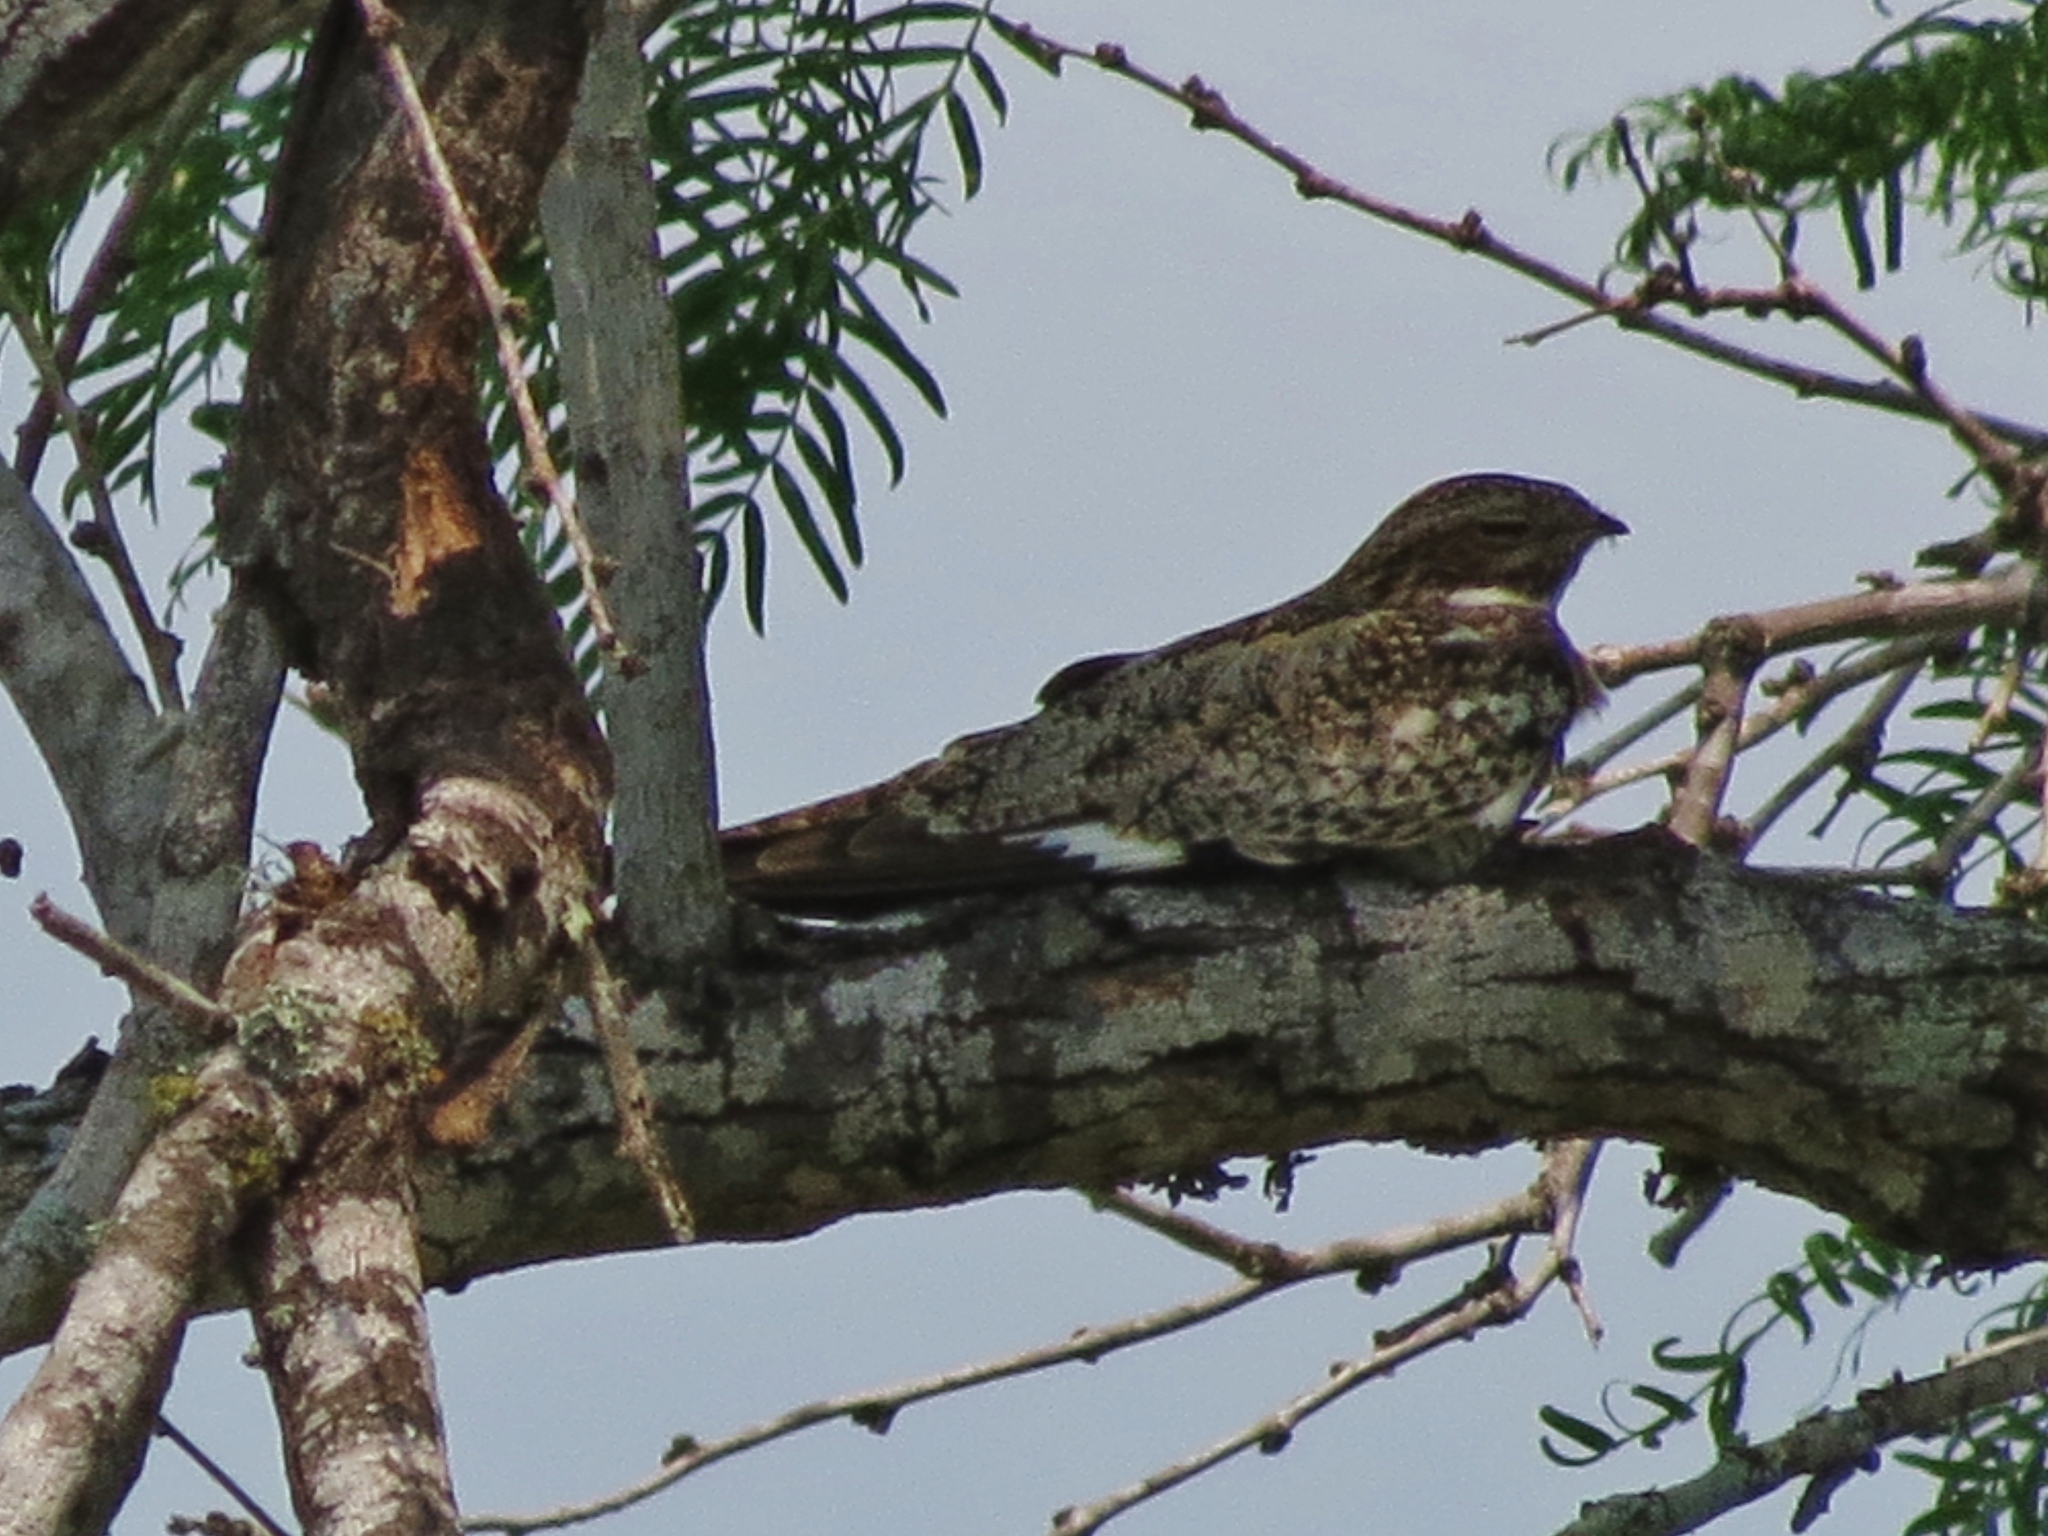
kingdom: Animalia
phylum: Chordata
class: Aves
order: Caprimulgiformes
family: Caprimulgidae
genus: Chordeiles
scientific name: Chordeiles minor
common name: Common nighthawk
